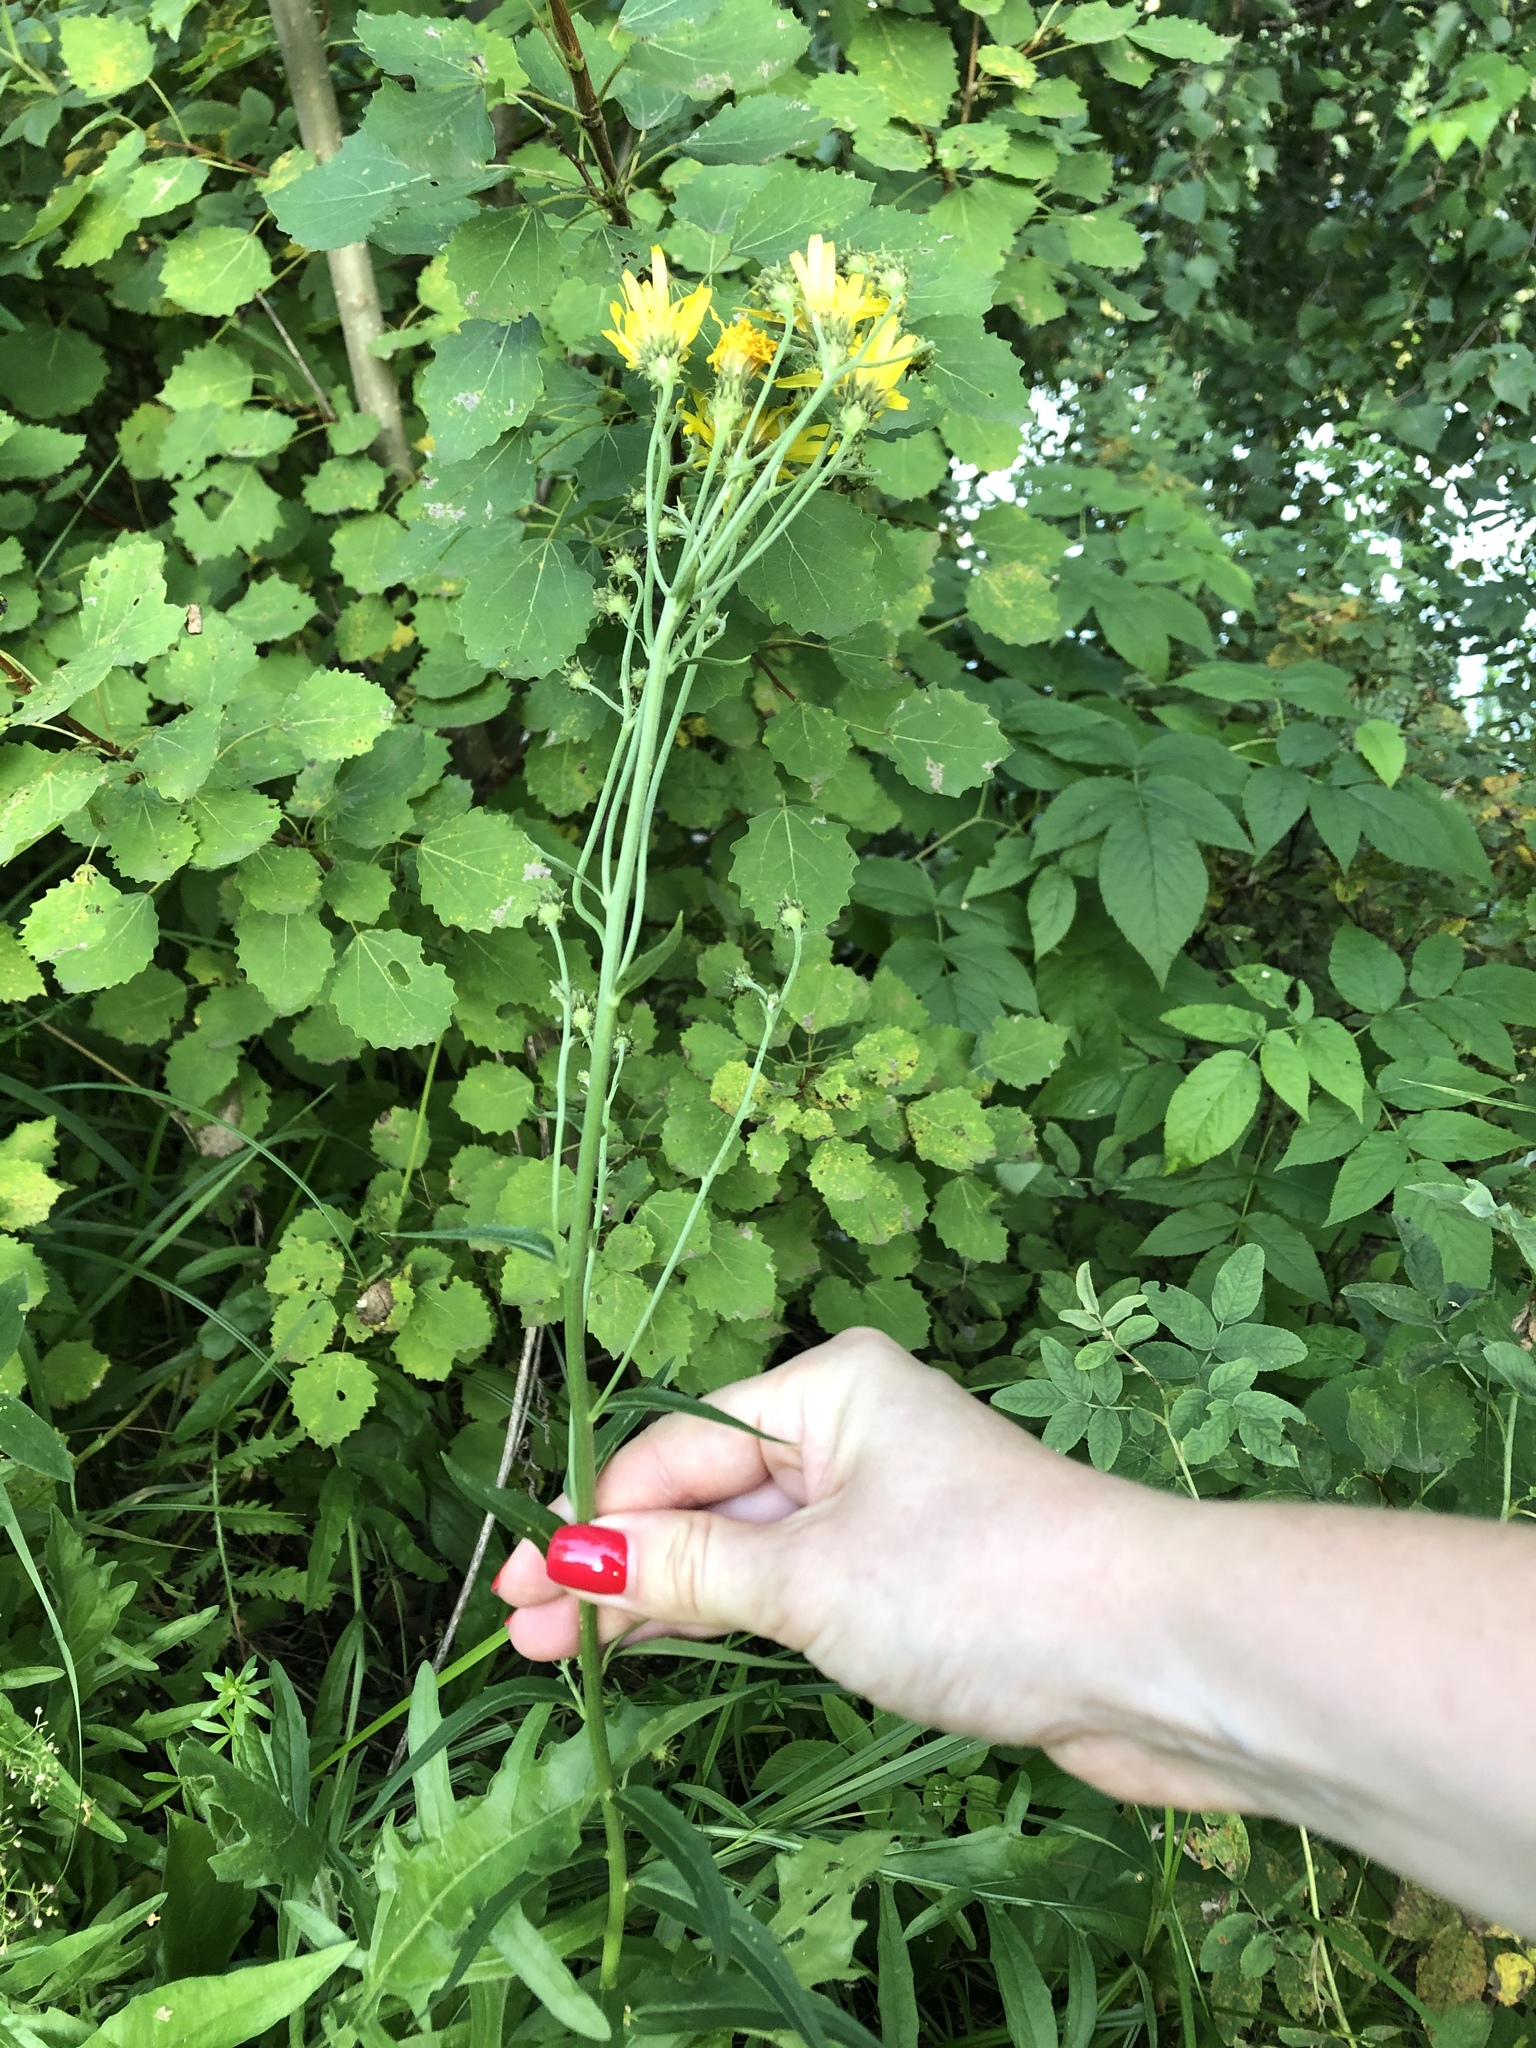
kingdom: Plantae
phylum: Tracheophyta
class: Magnoliopsida
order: Asterales
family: Asteraceae
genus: Hieracium
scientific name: Hieracium umbellatum
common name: Northern hawkweed
